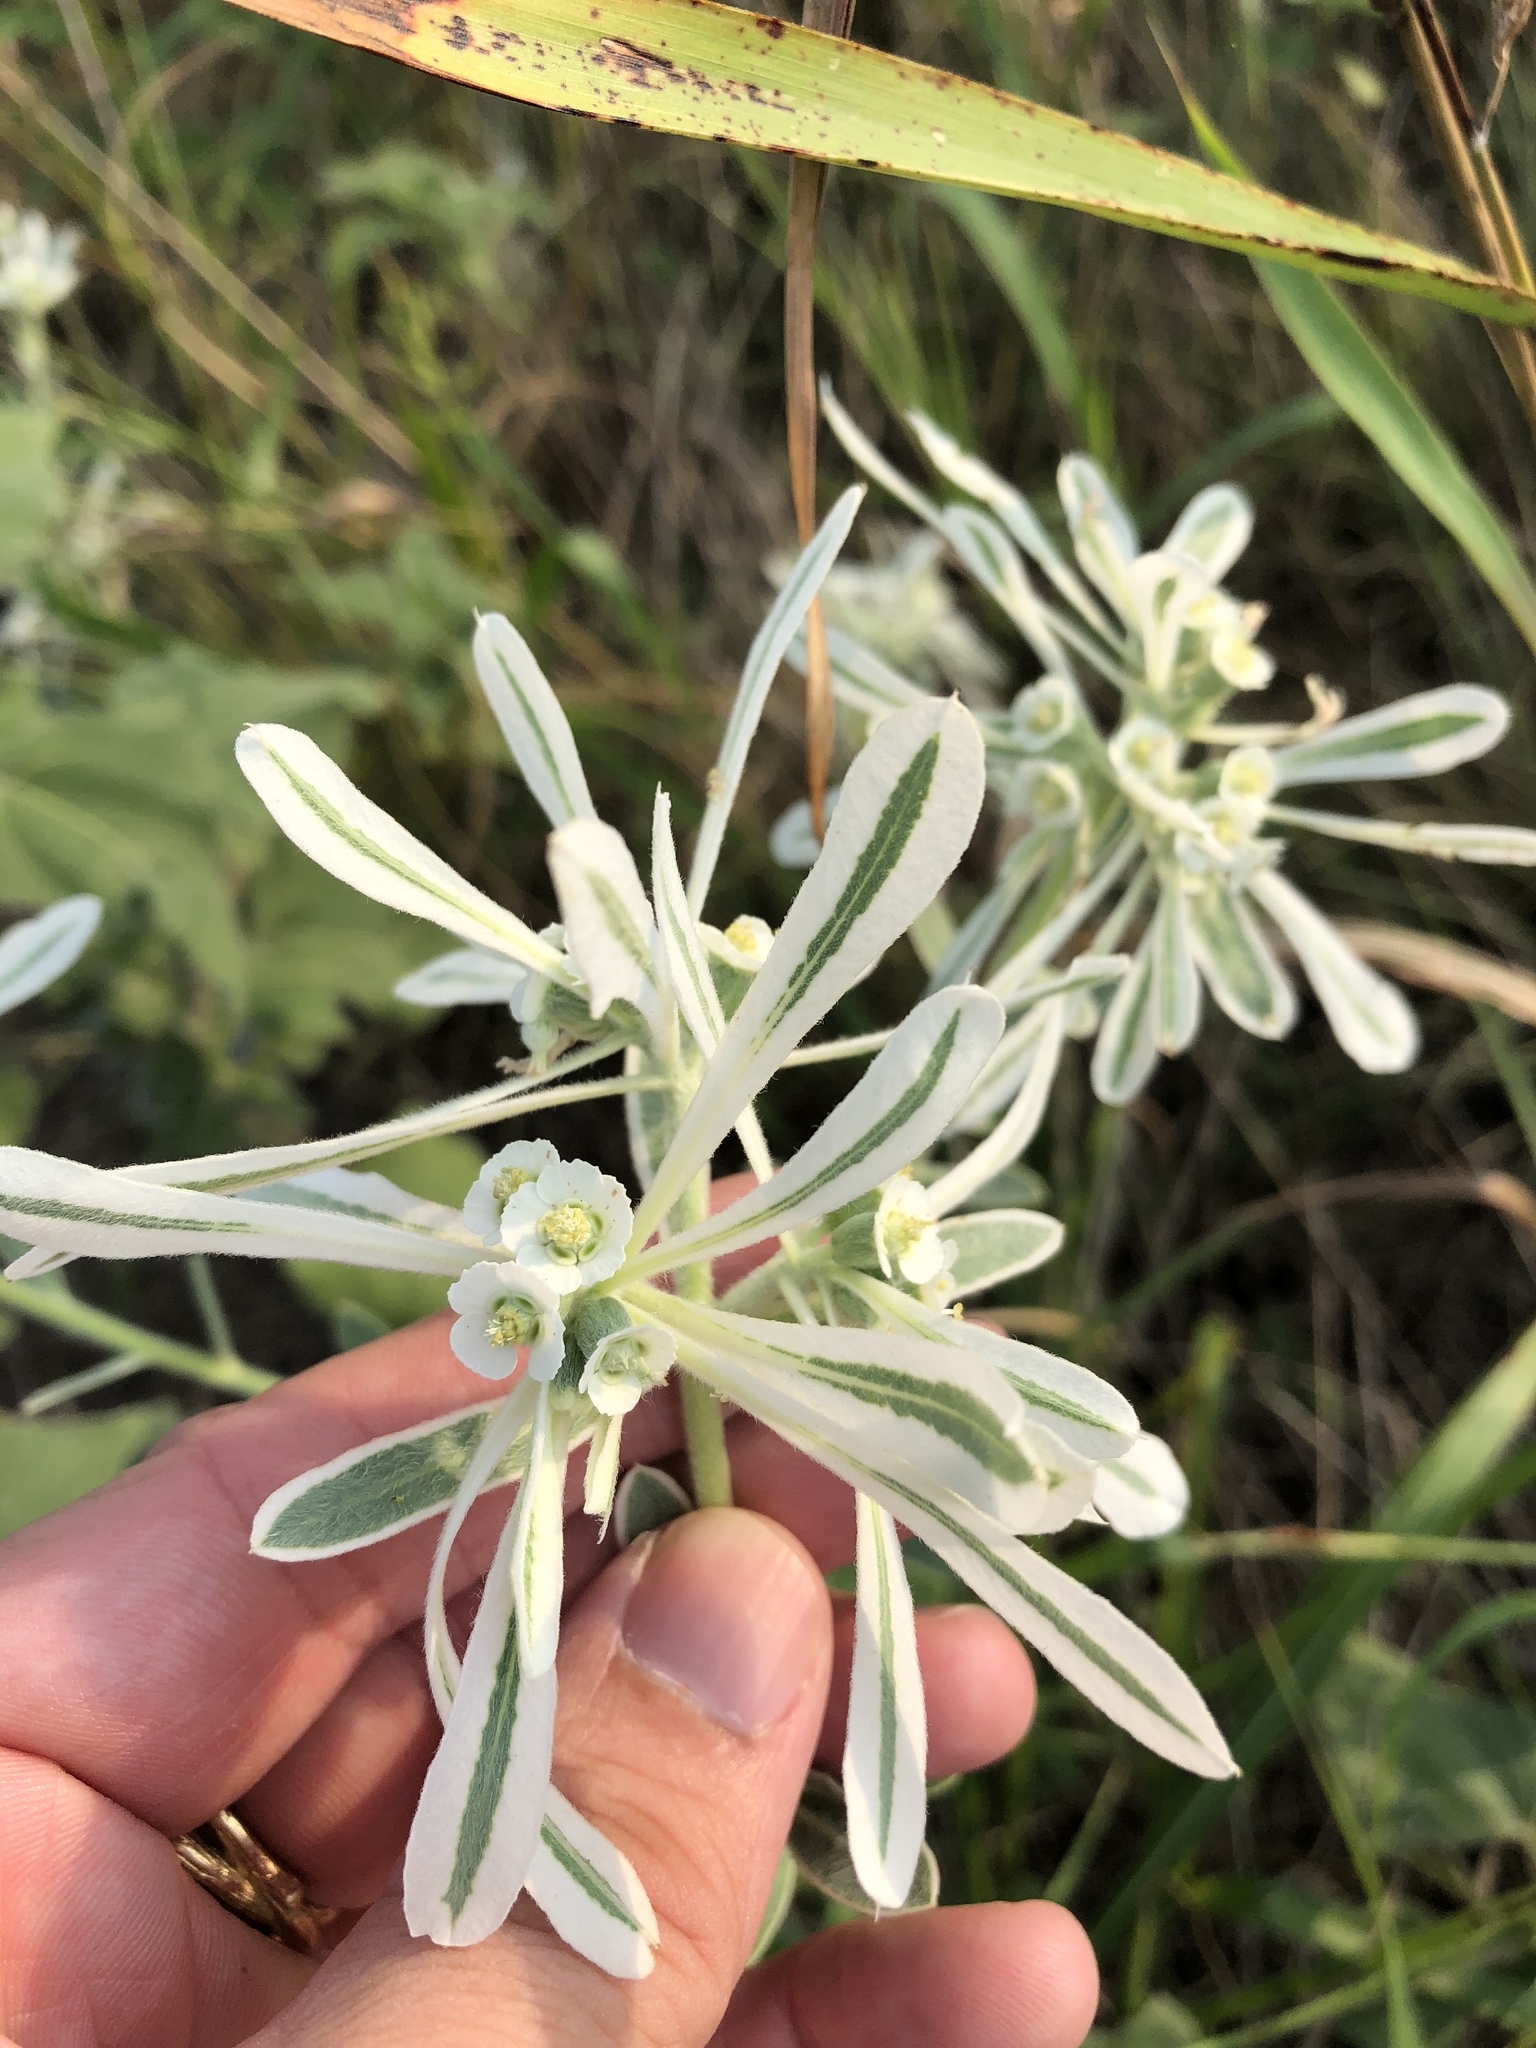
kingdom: Plantae
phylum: Tracheophyta
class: Magnoliopsida
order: Malpighiales
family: Euphorbiaceae
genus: Euphorbia
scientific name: Euphorbia bicolor
